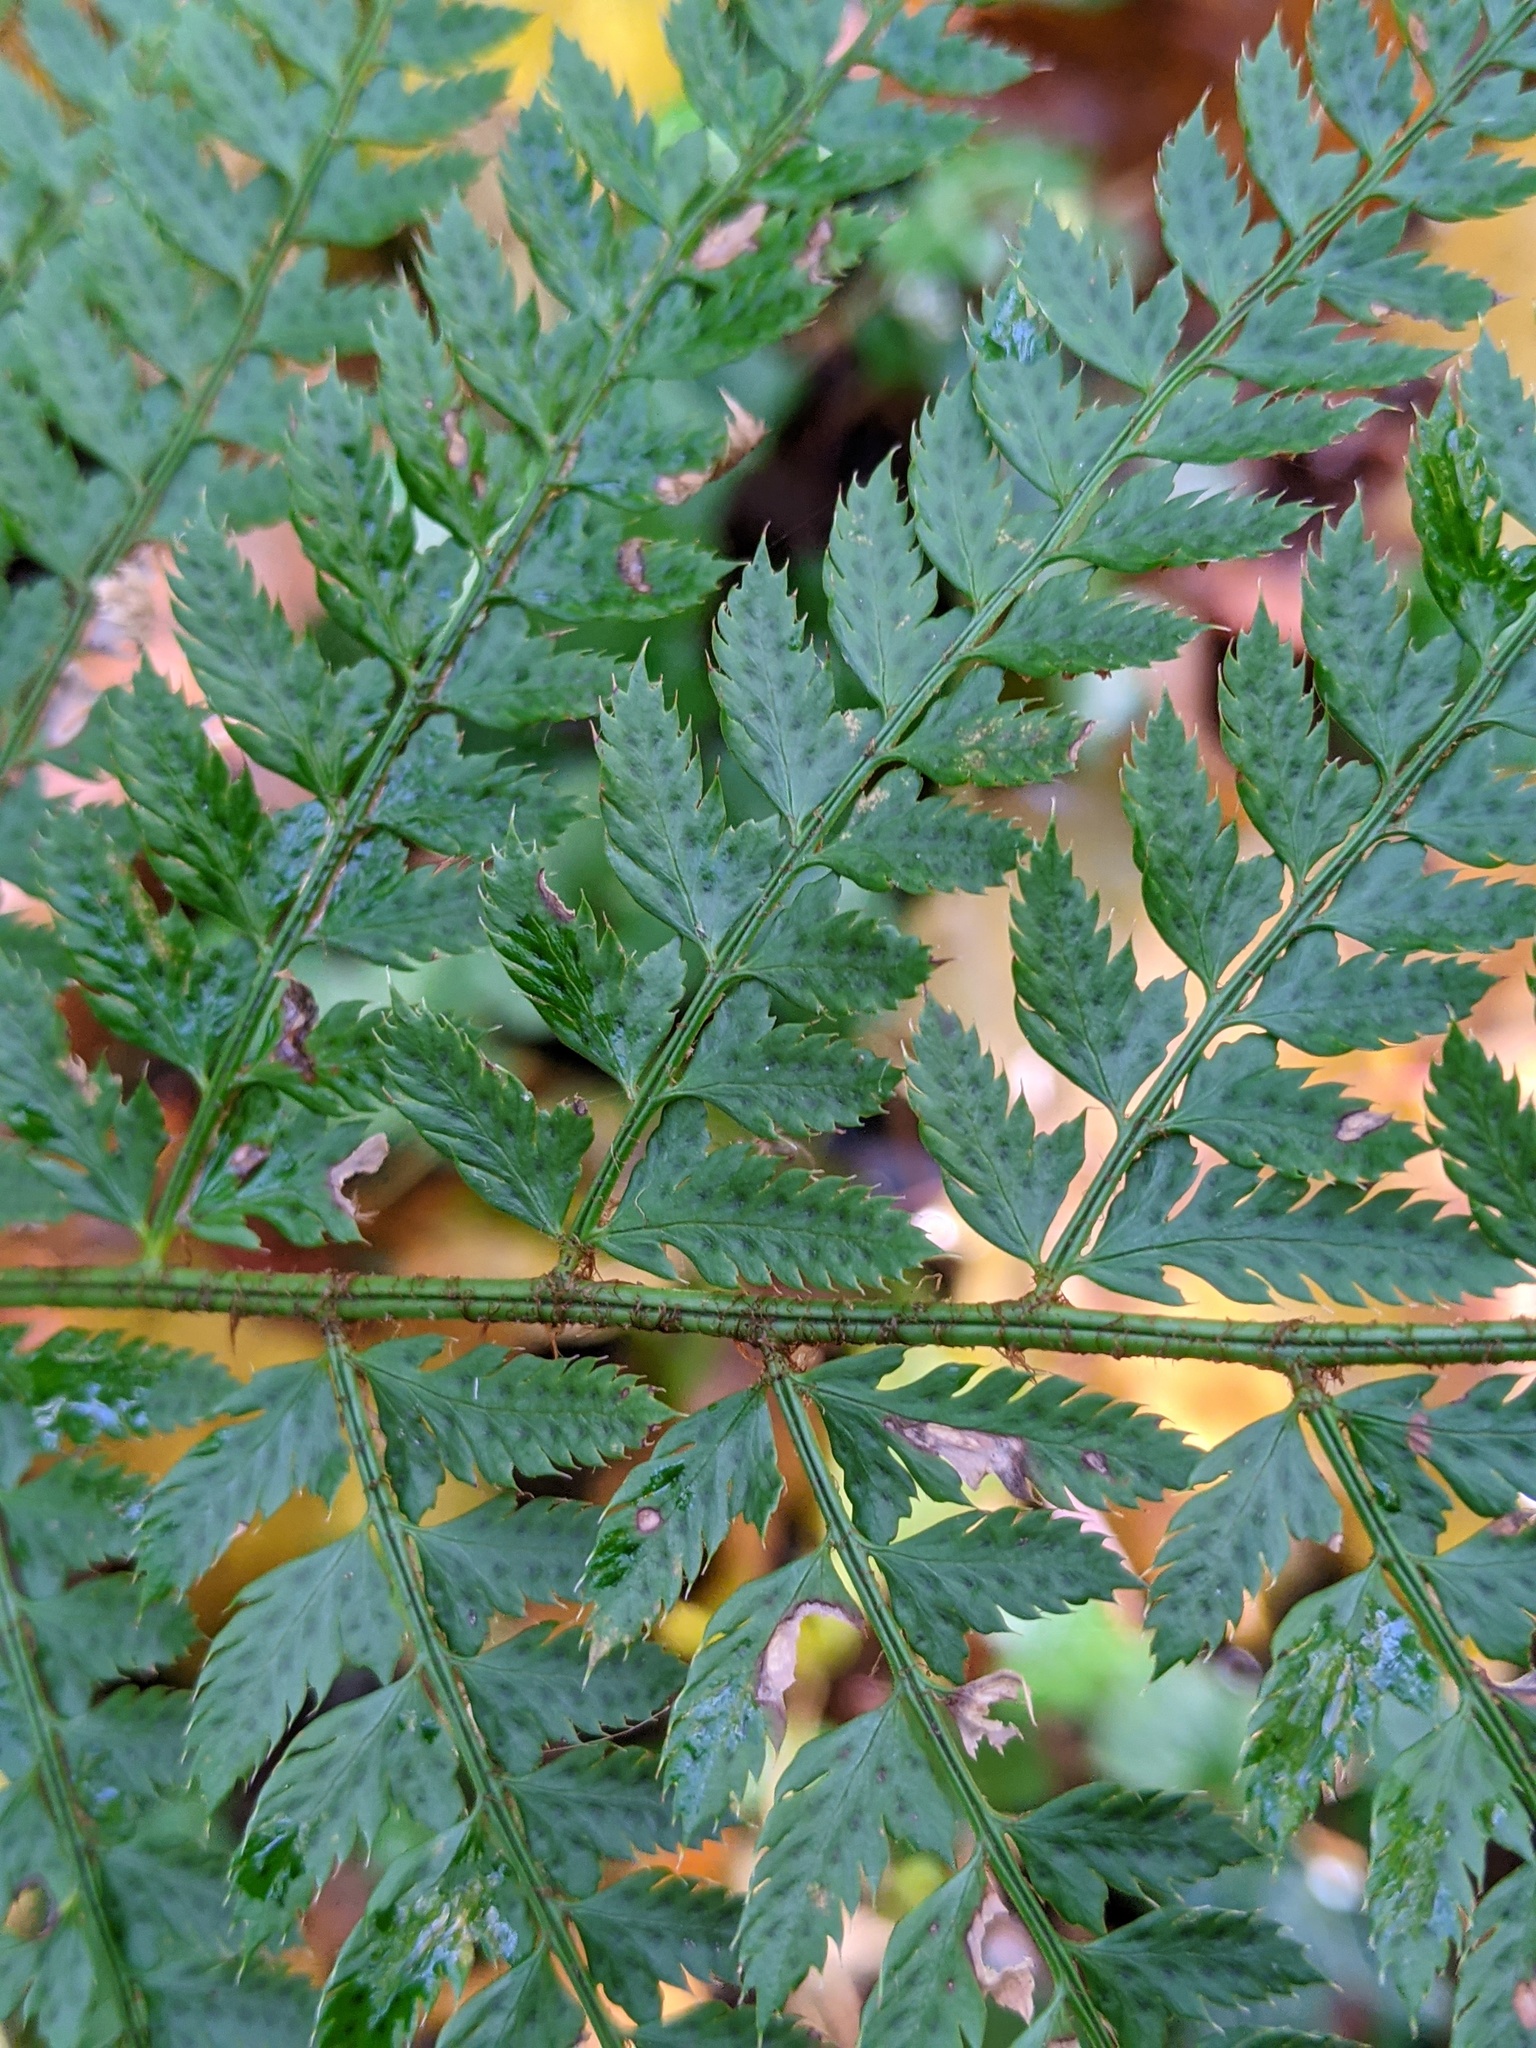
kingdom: Plantae
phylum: Tracheophyta
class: Polypodiopsida
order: Polypodiales
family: Dryopteridaceae
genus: Polystichum
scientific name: Polystichum setiferum
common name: Soft shield-fern
